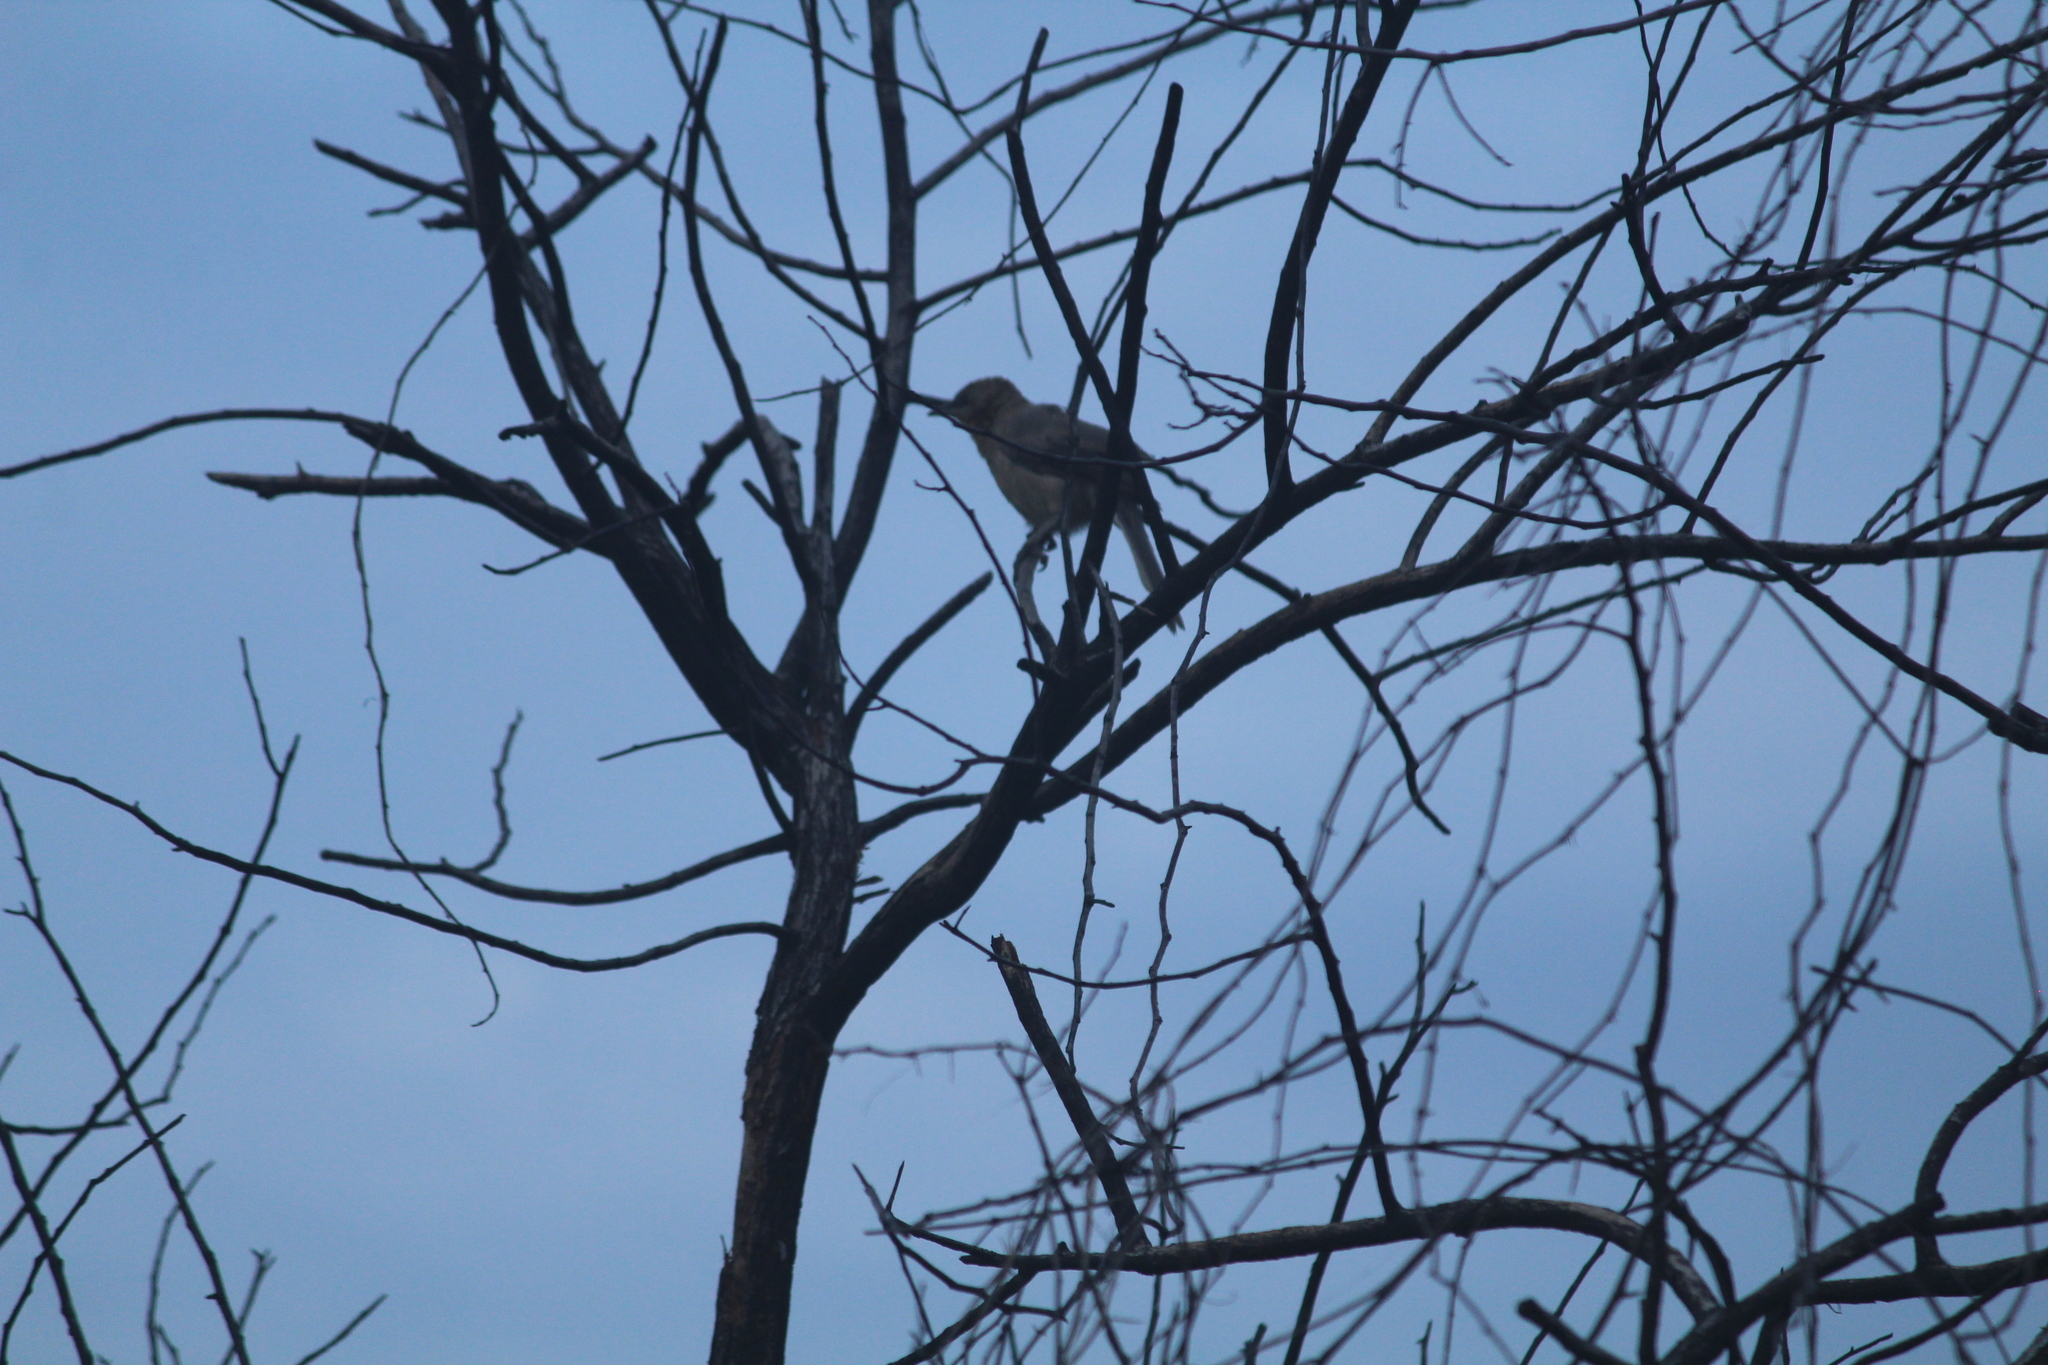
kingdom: Animalia
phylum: Chordata
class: Aves
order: Passeriformes
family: Leiothrichidae
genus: Turdoides
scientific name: Turdoides malcolmi
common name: Large grey babbler
